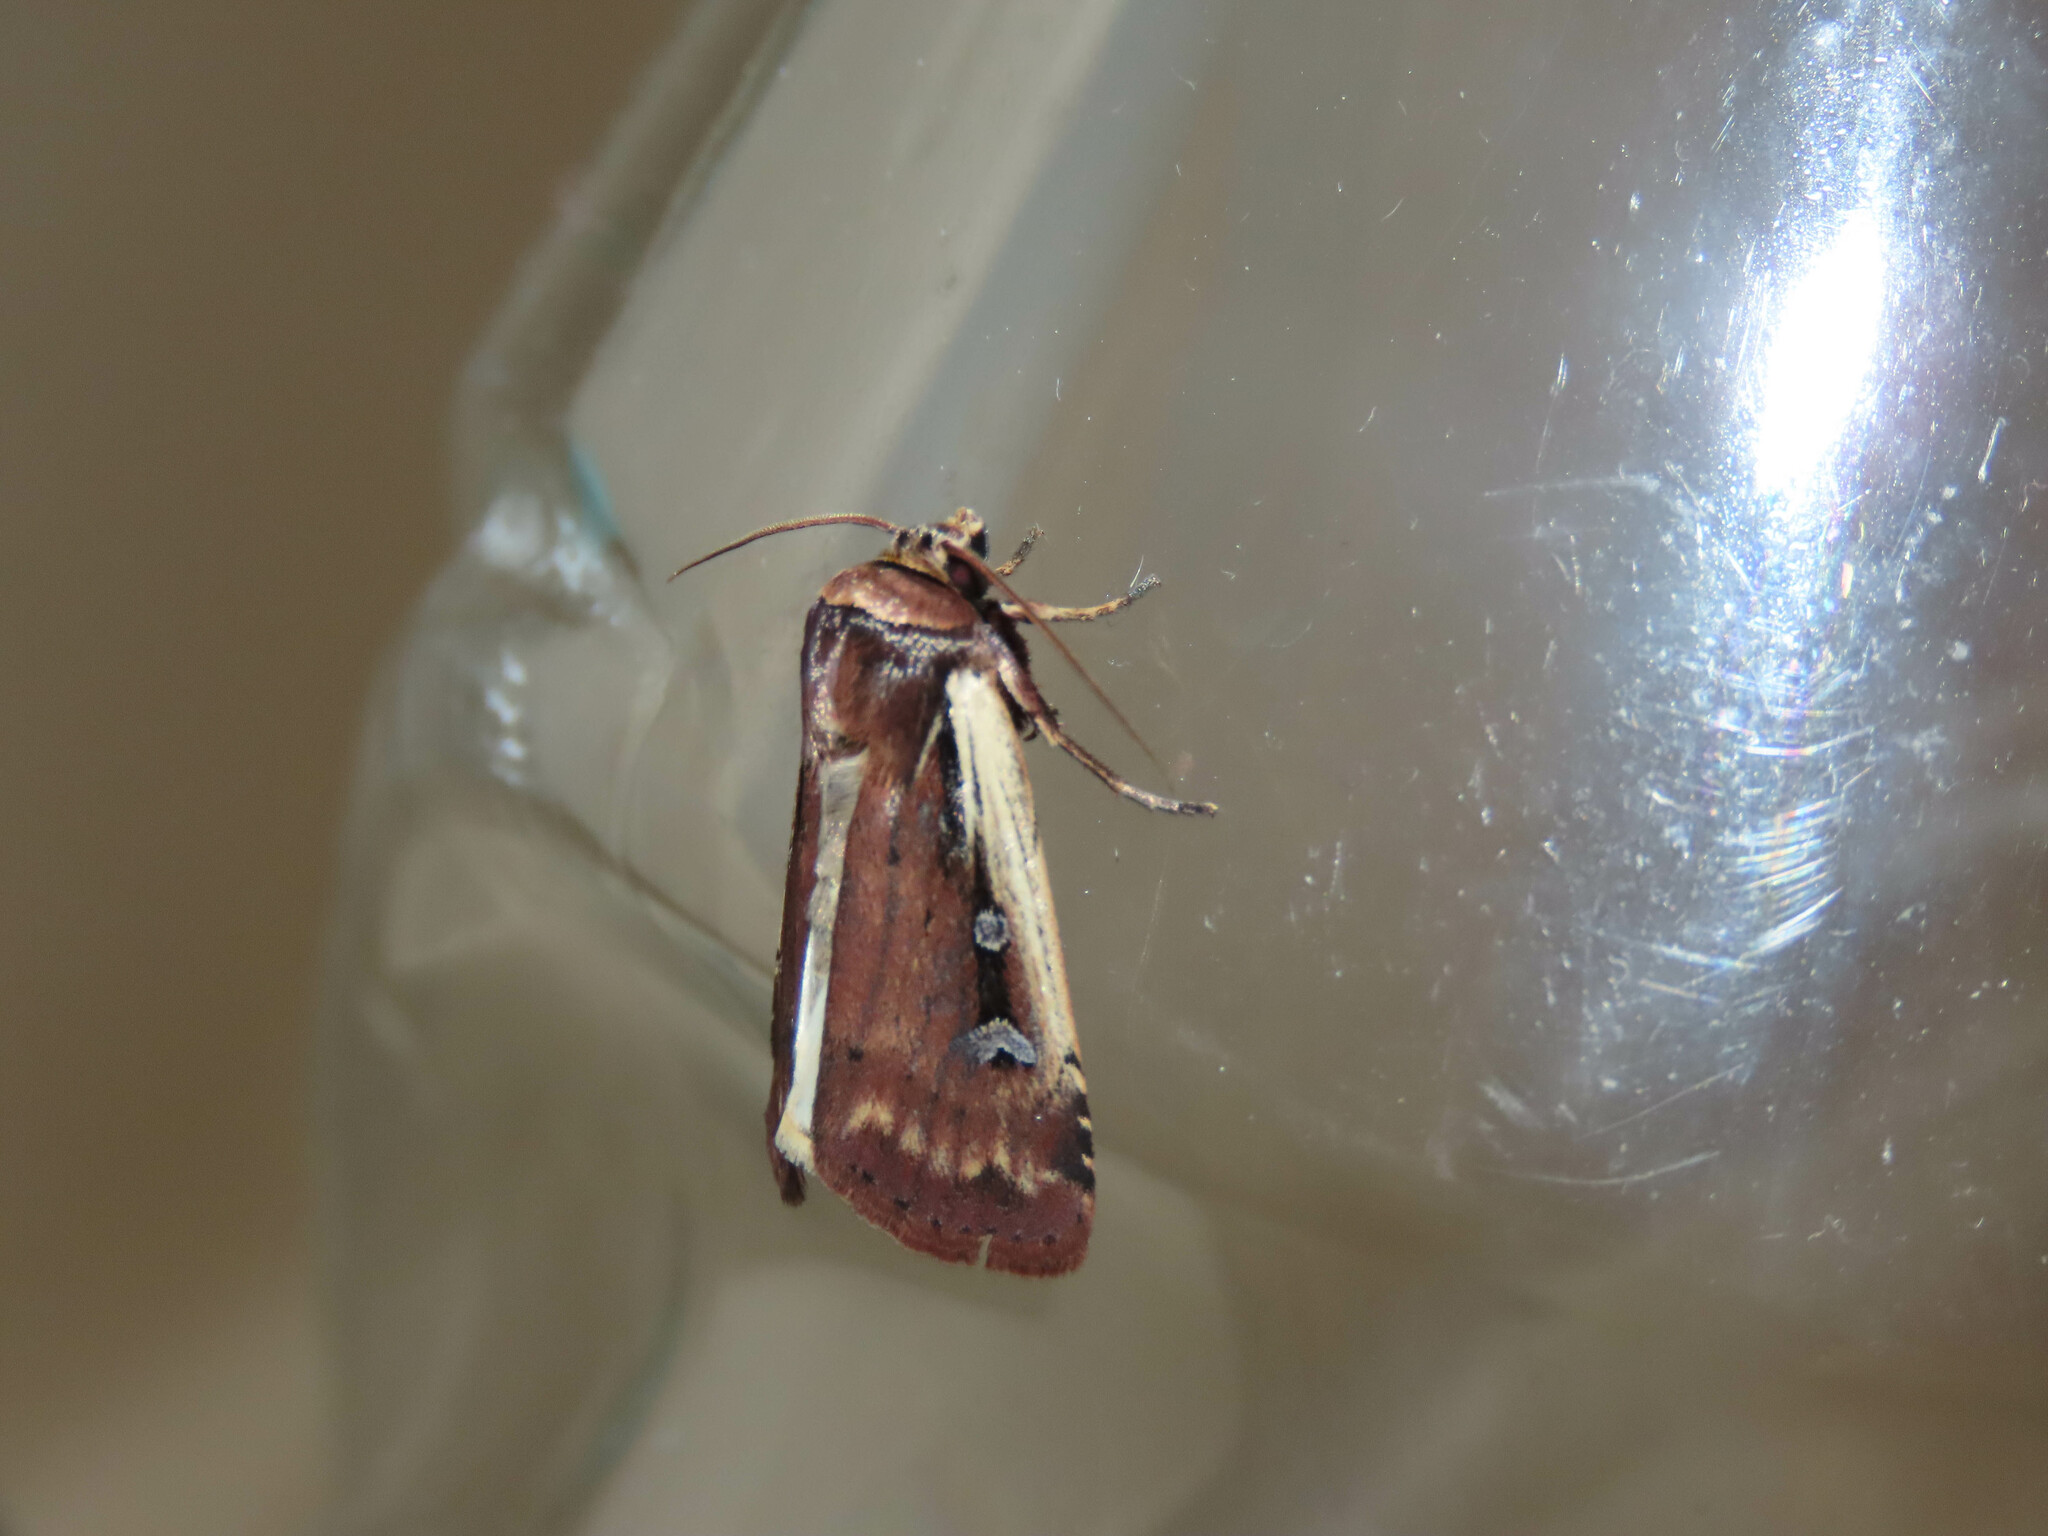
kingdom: Animalia
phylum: Arthropoda
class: Insecta
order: Lepidoptera
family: Noctuidae
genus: Ochropleura
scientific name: Ochropleura implecta
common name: Flame-shouldered dart
